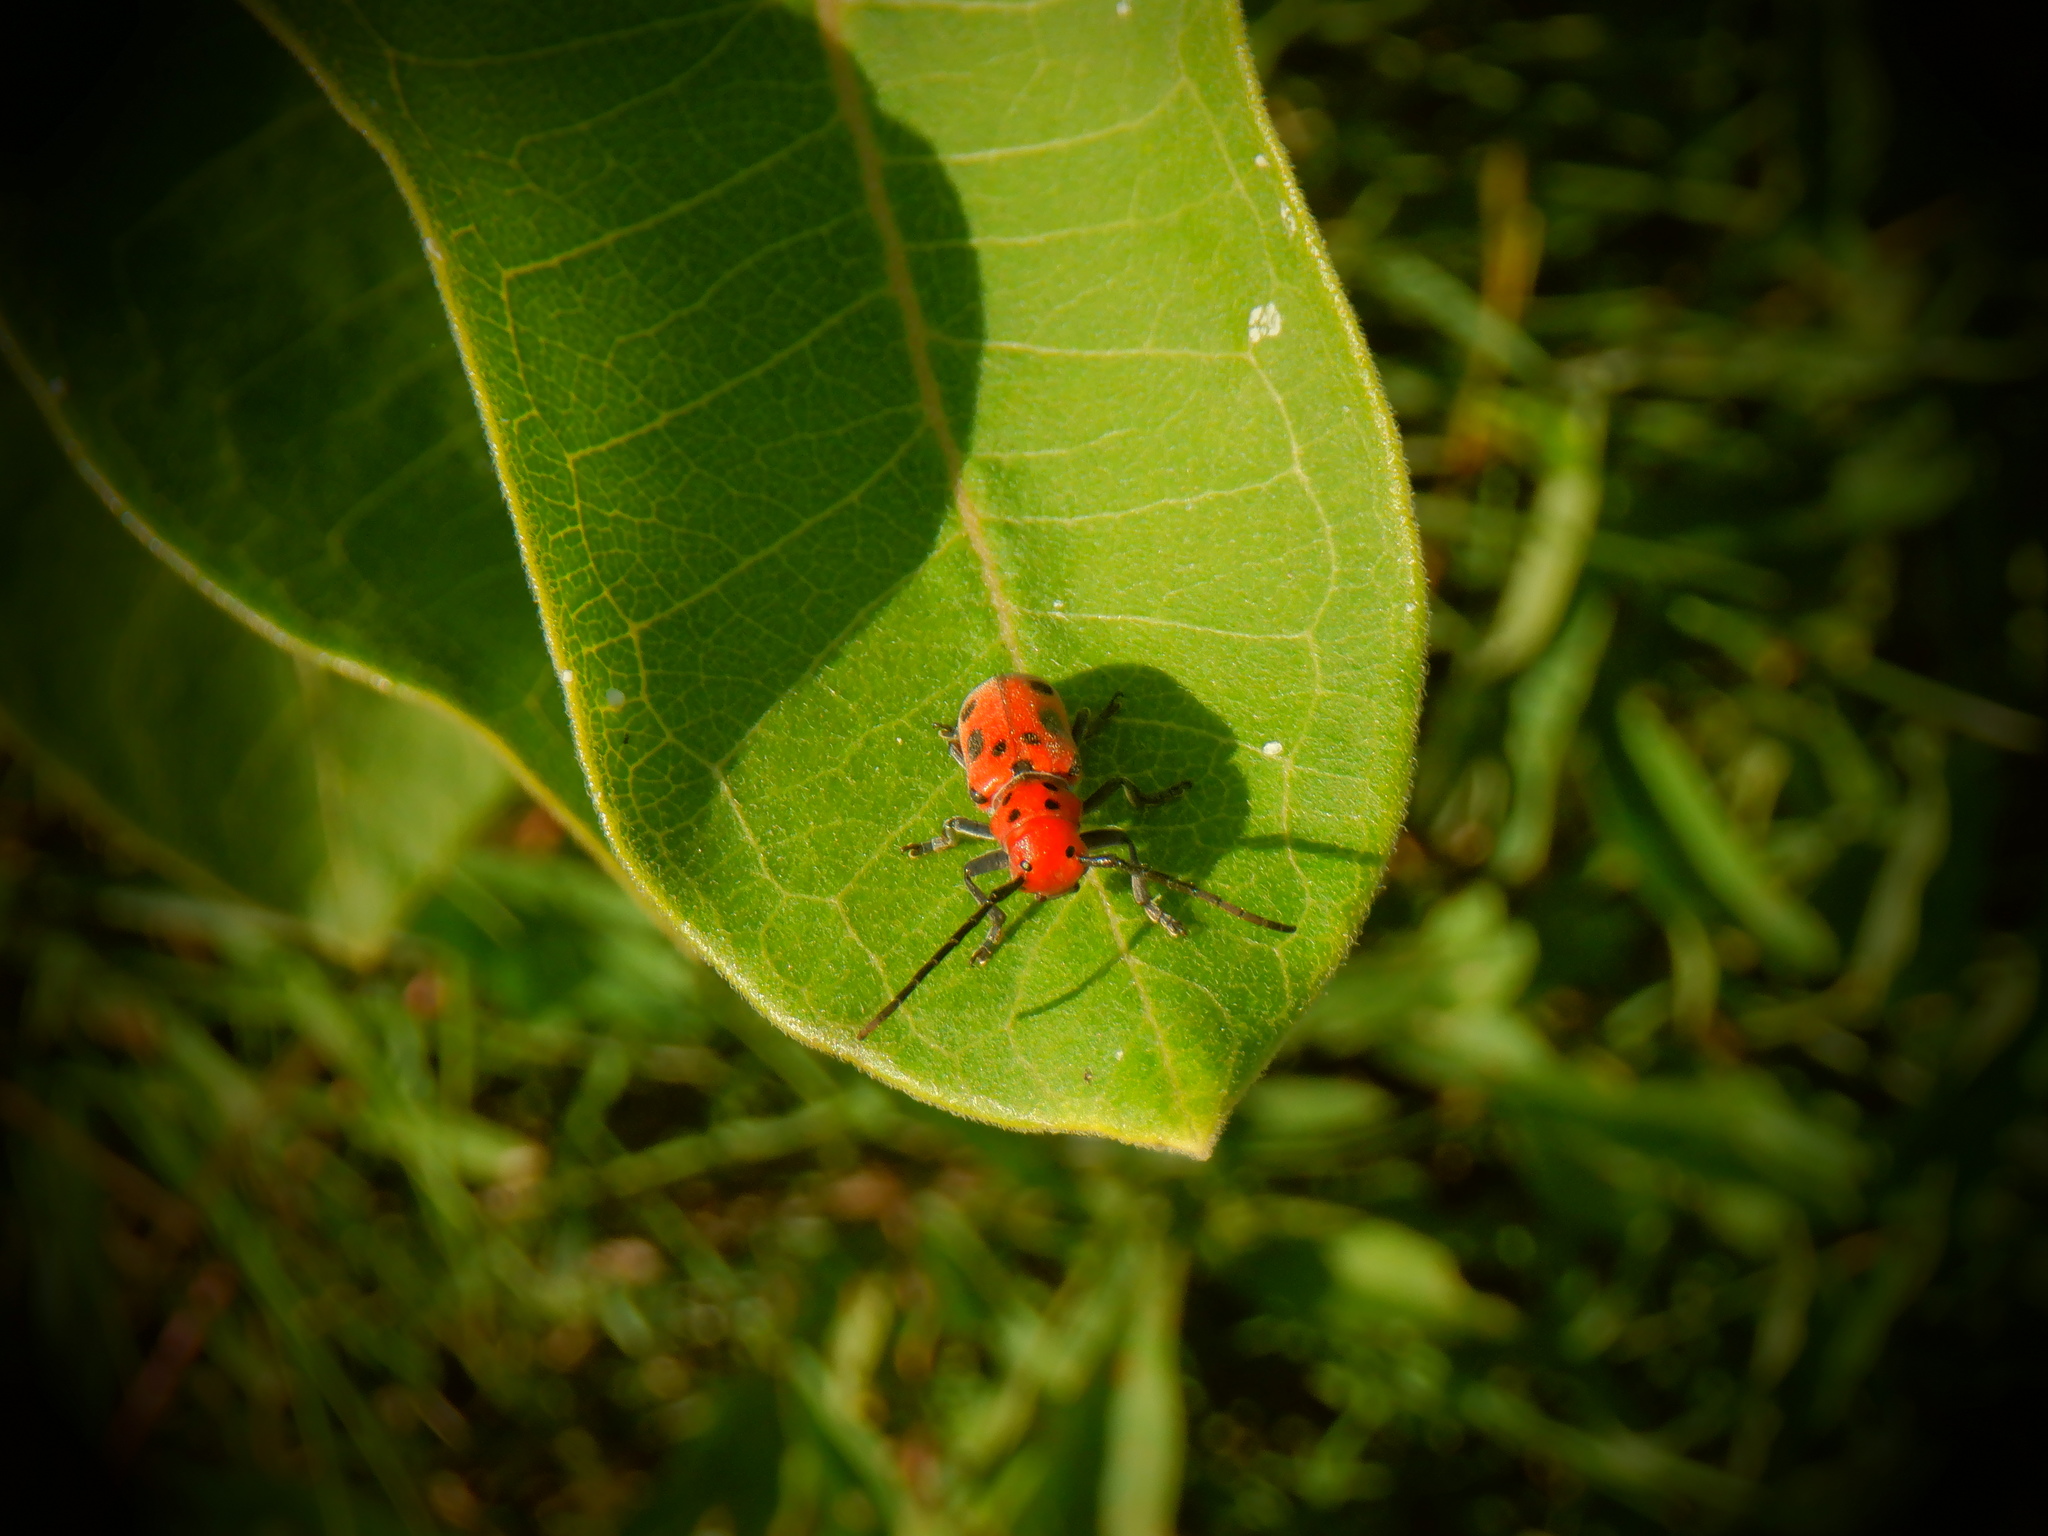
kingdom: Animalia
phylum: Arthropoda
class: Insecta
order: Coleoptera
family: Cerambycidae
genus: Tetraopes
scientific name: Tetraopes tetrophthalmus
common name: Red milkweed beetle
